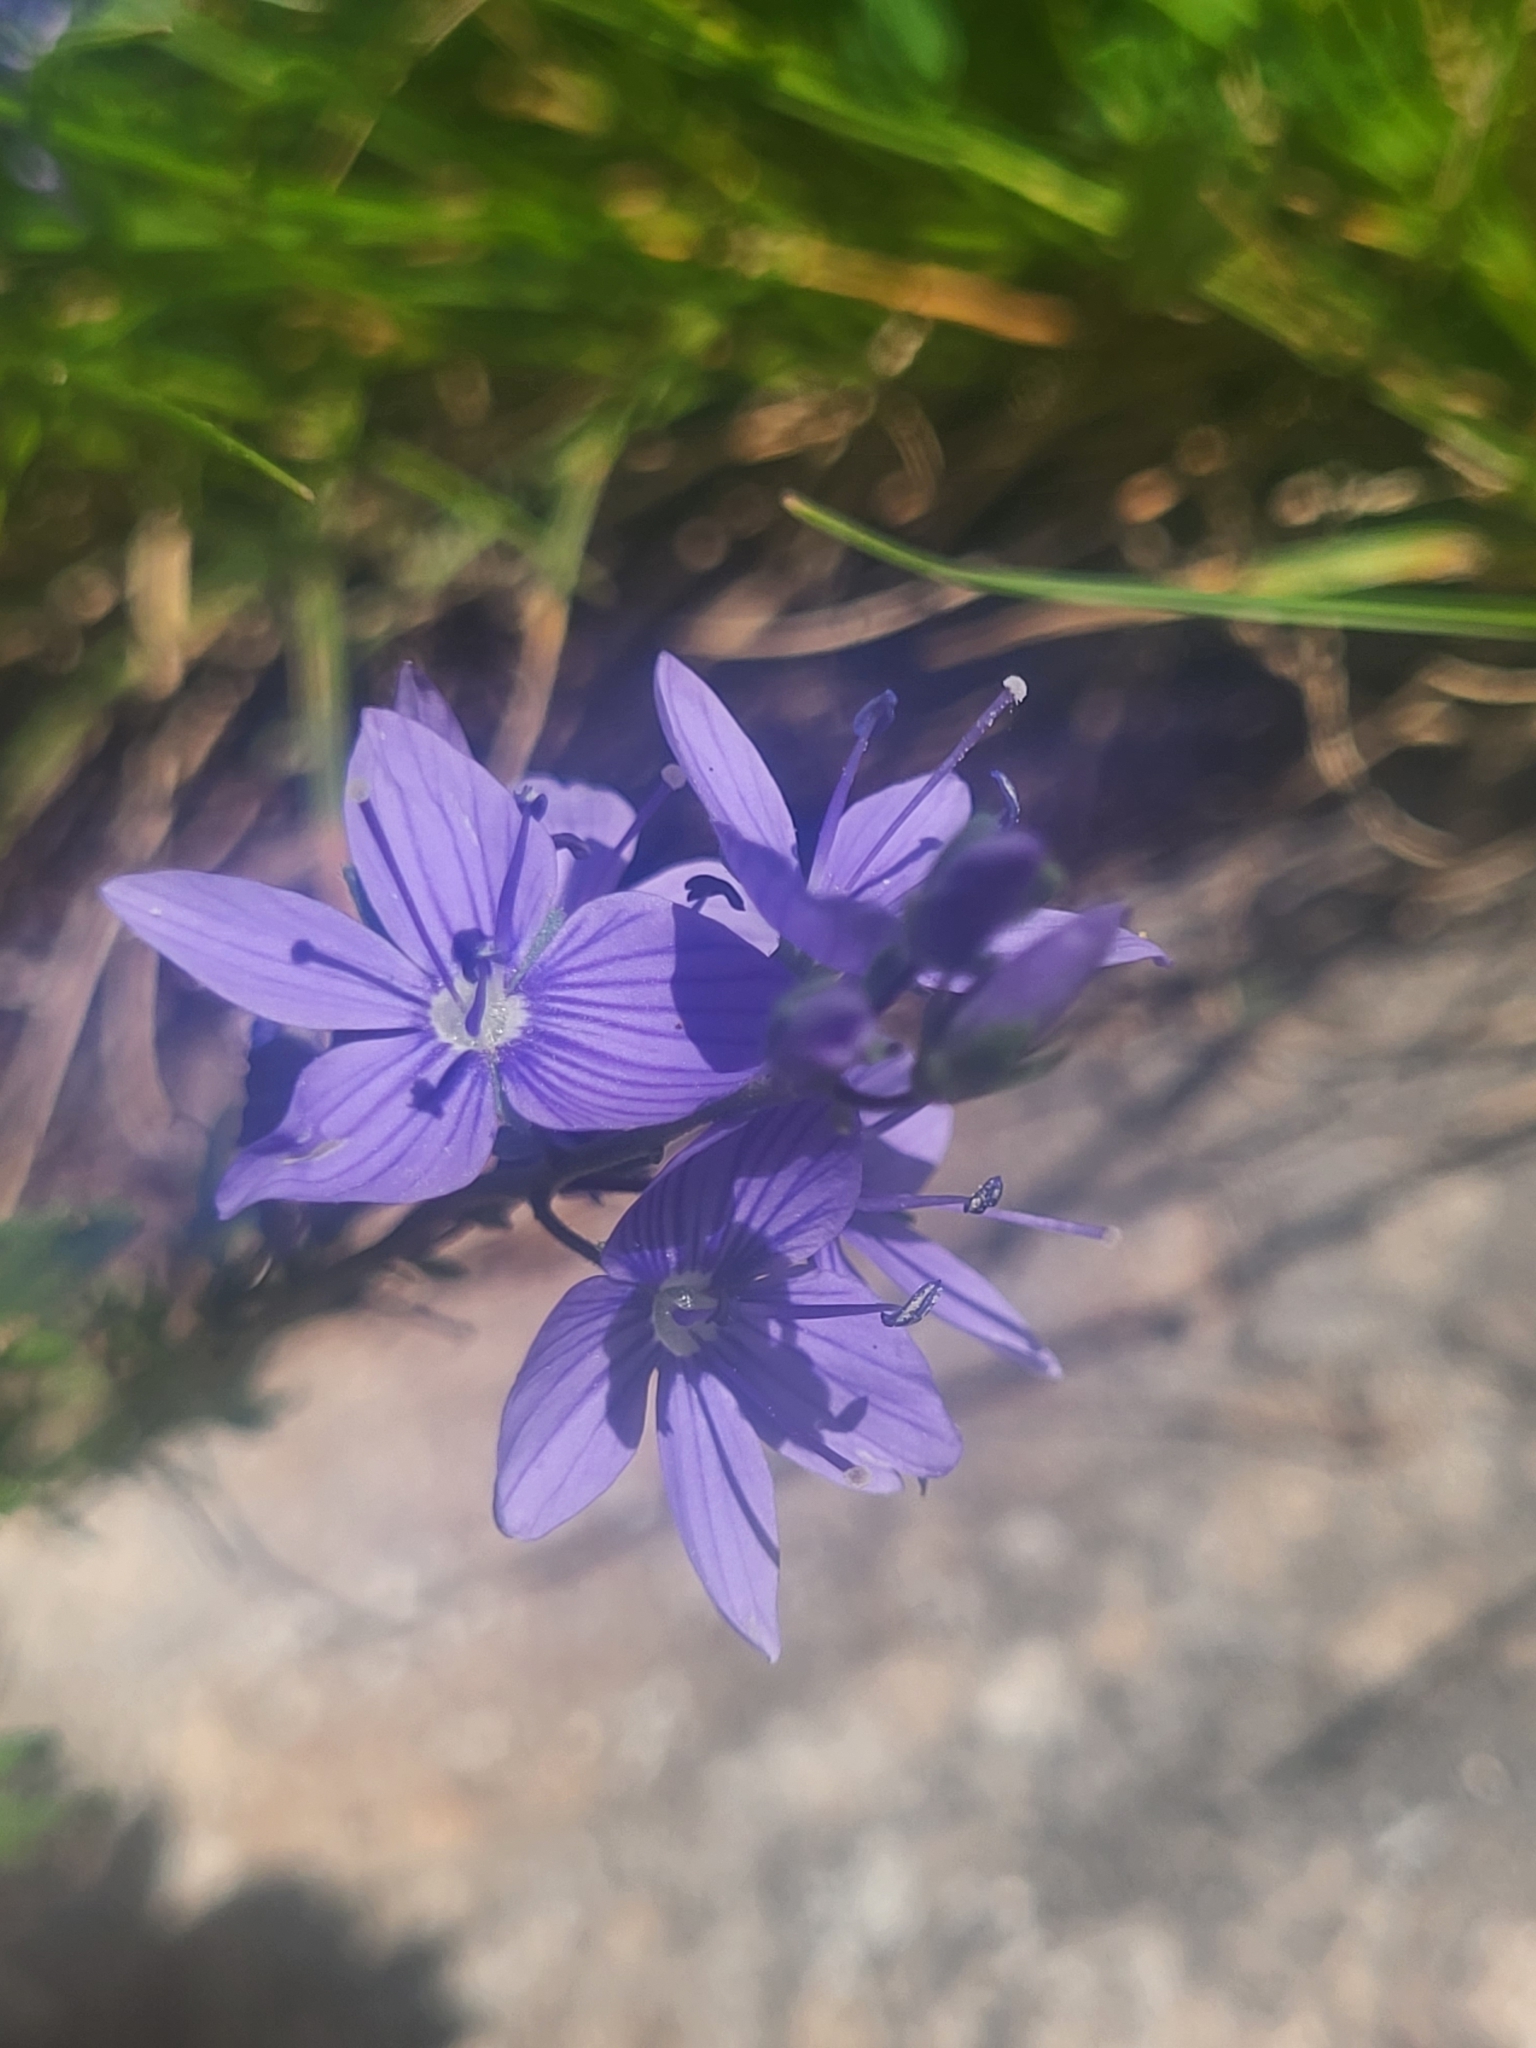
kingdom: Plantae
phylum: Tracheophyta
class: Magnoliopsida
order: Lamiales
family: Plantaginaceae
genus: Veronica
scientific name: Veronica austriaca
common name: Large speedwell
